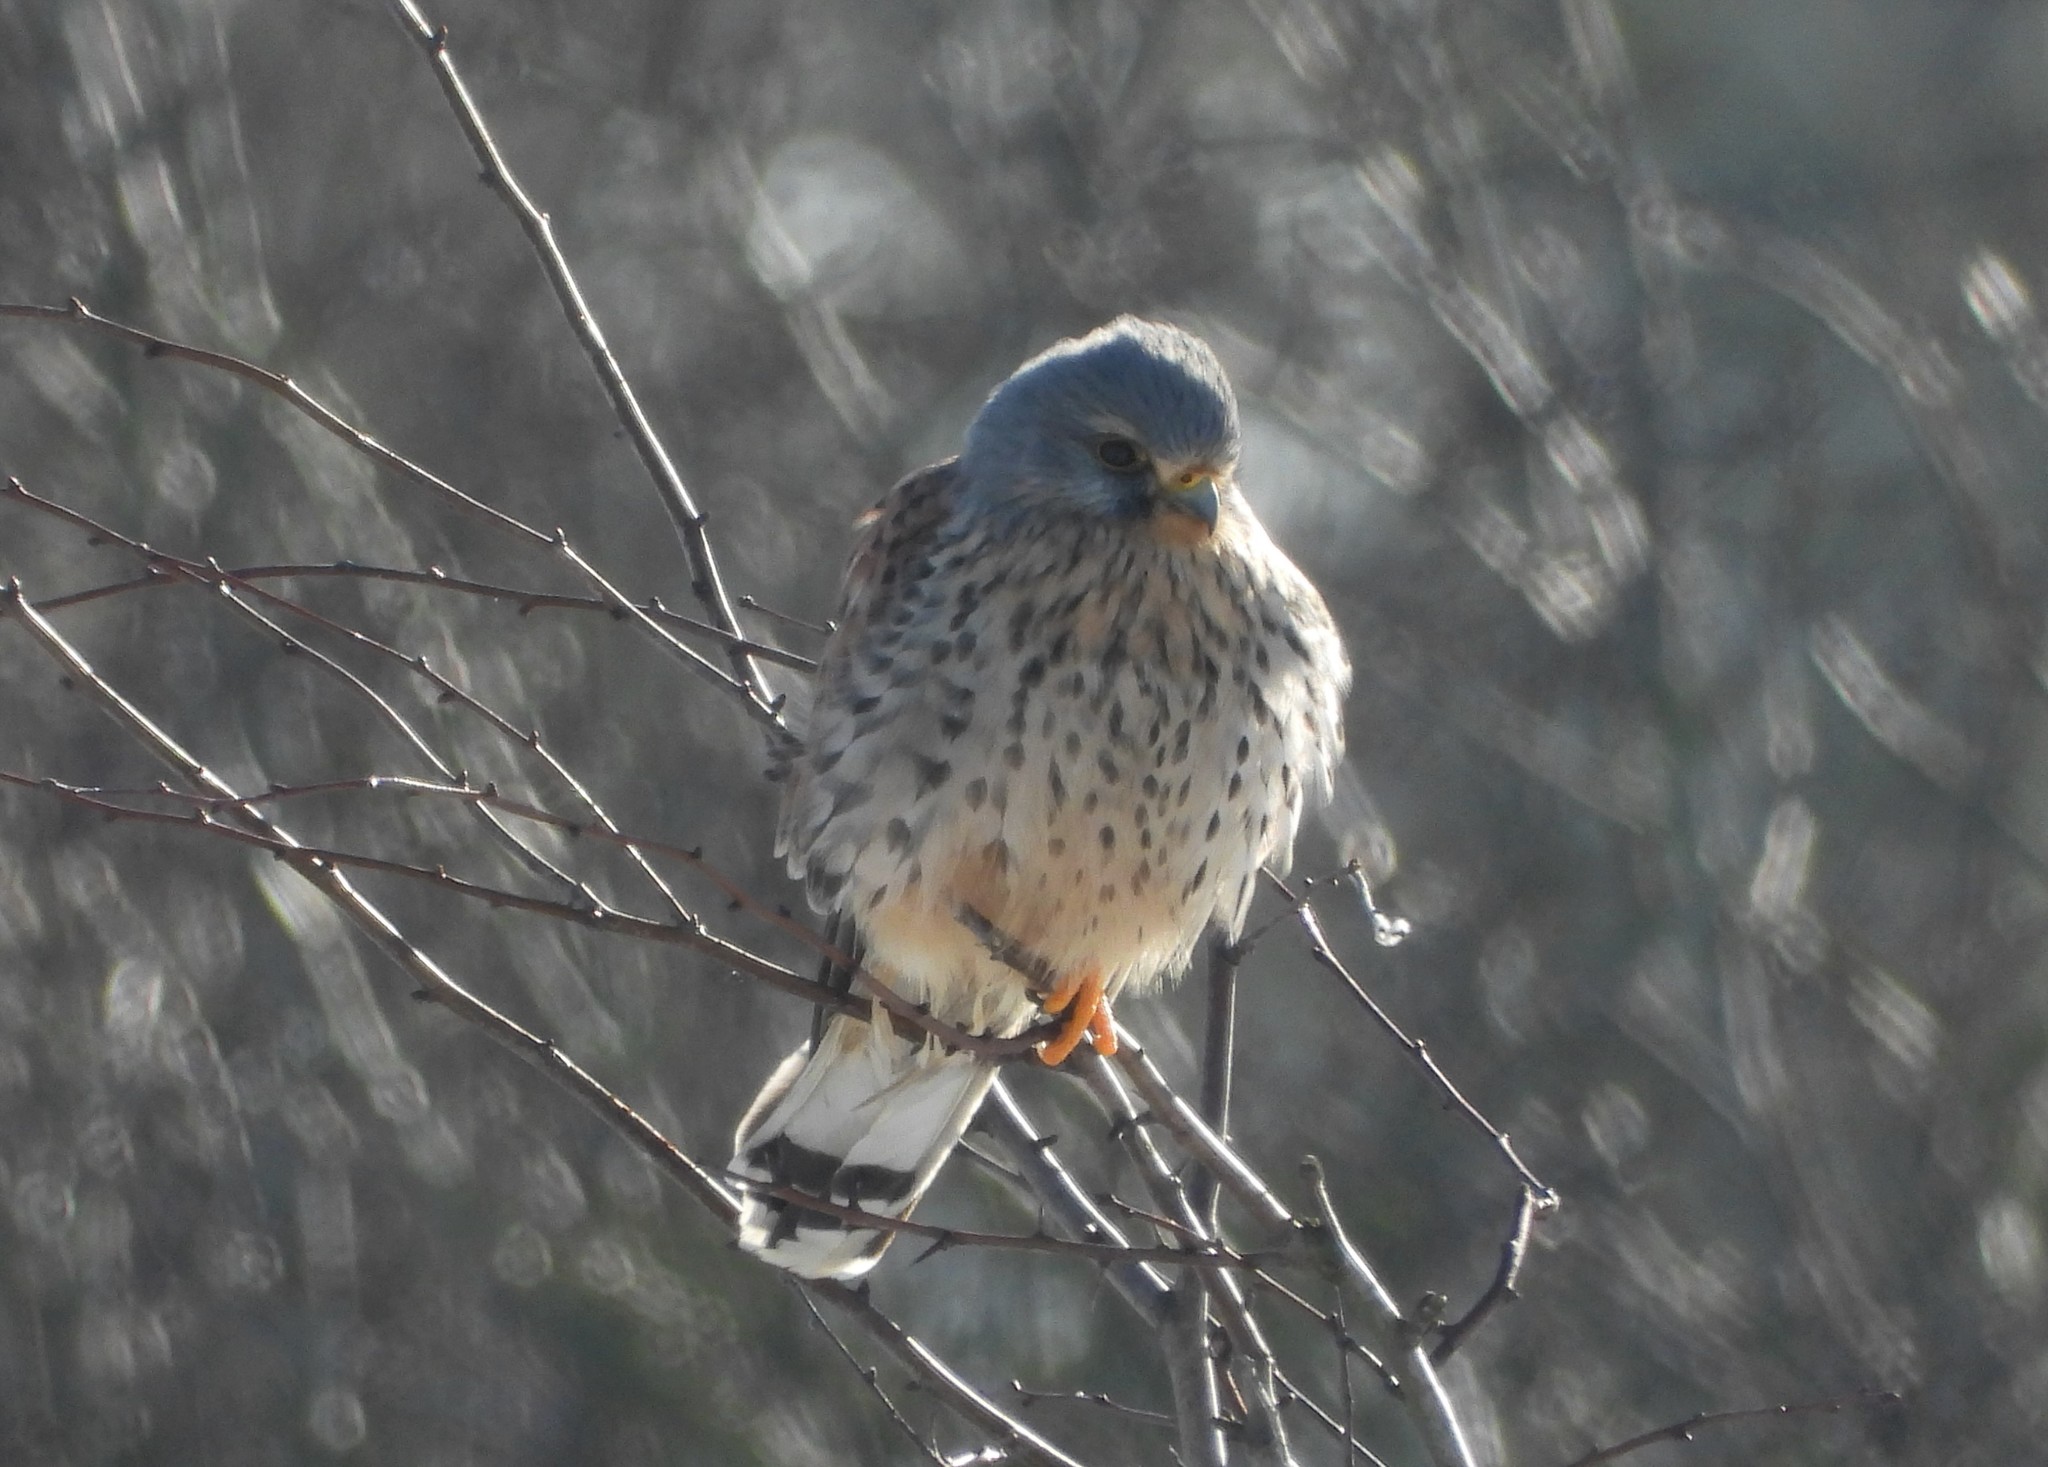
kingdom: Animalia
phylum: Chordata
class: Aves
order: Falconiformes
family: Falconidae
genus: Falco
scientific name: Falco tinnunculus
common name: Common kestrel
